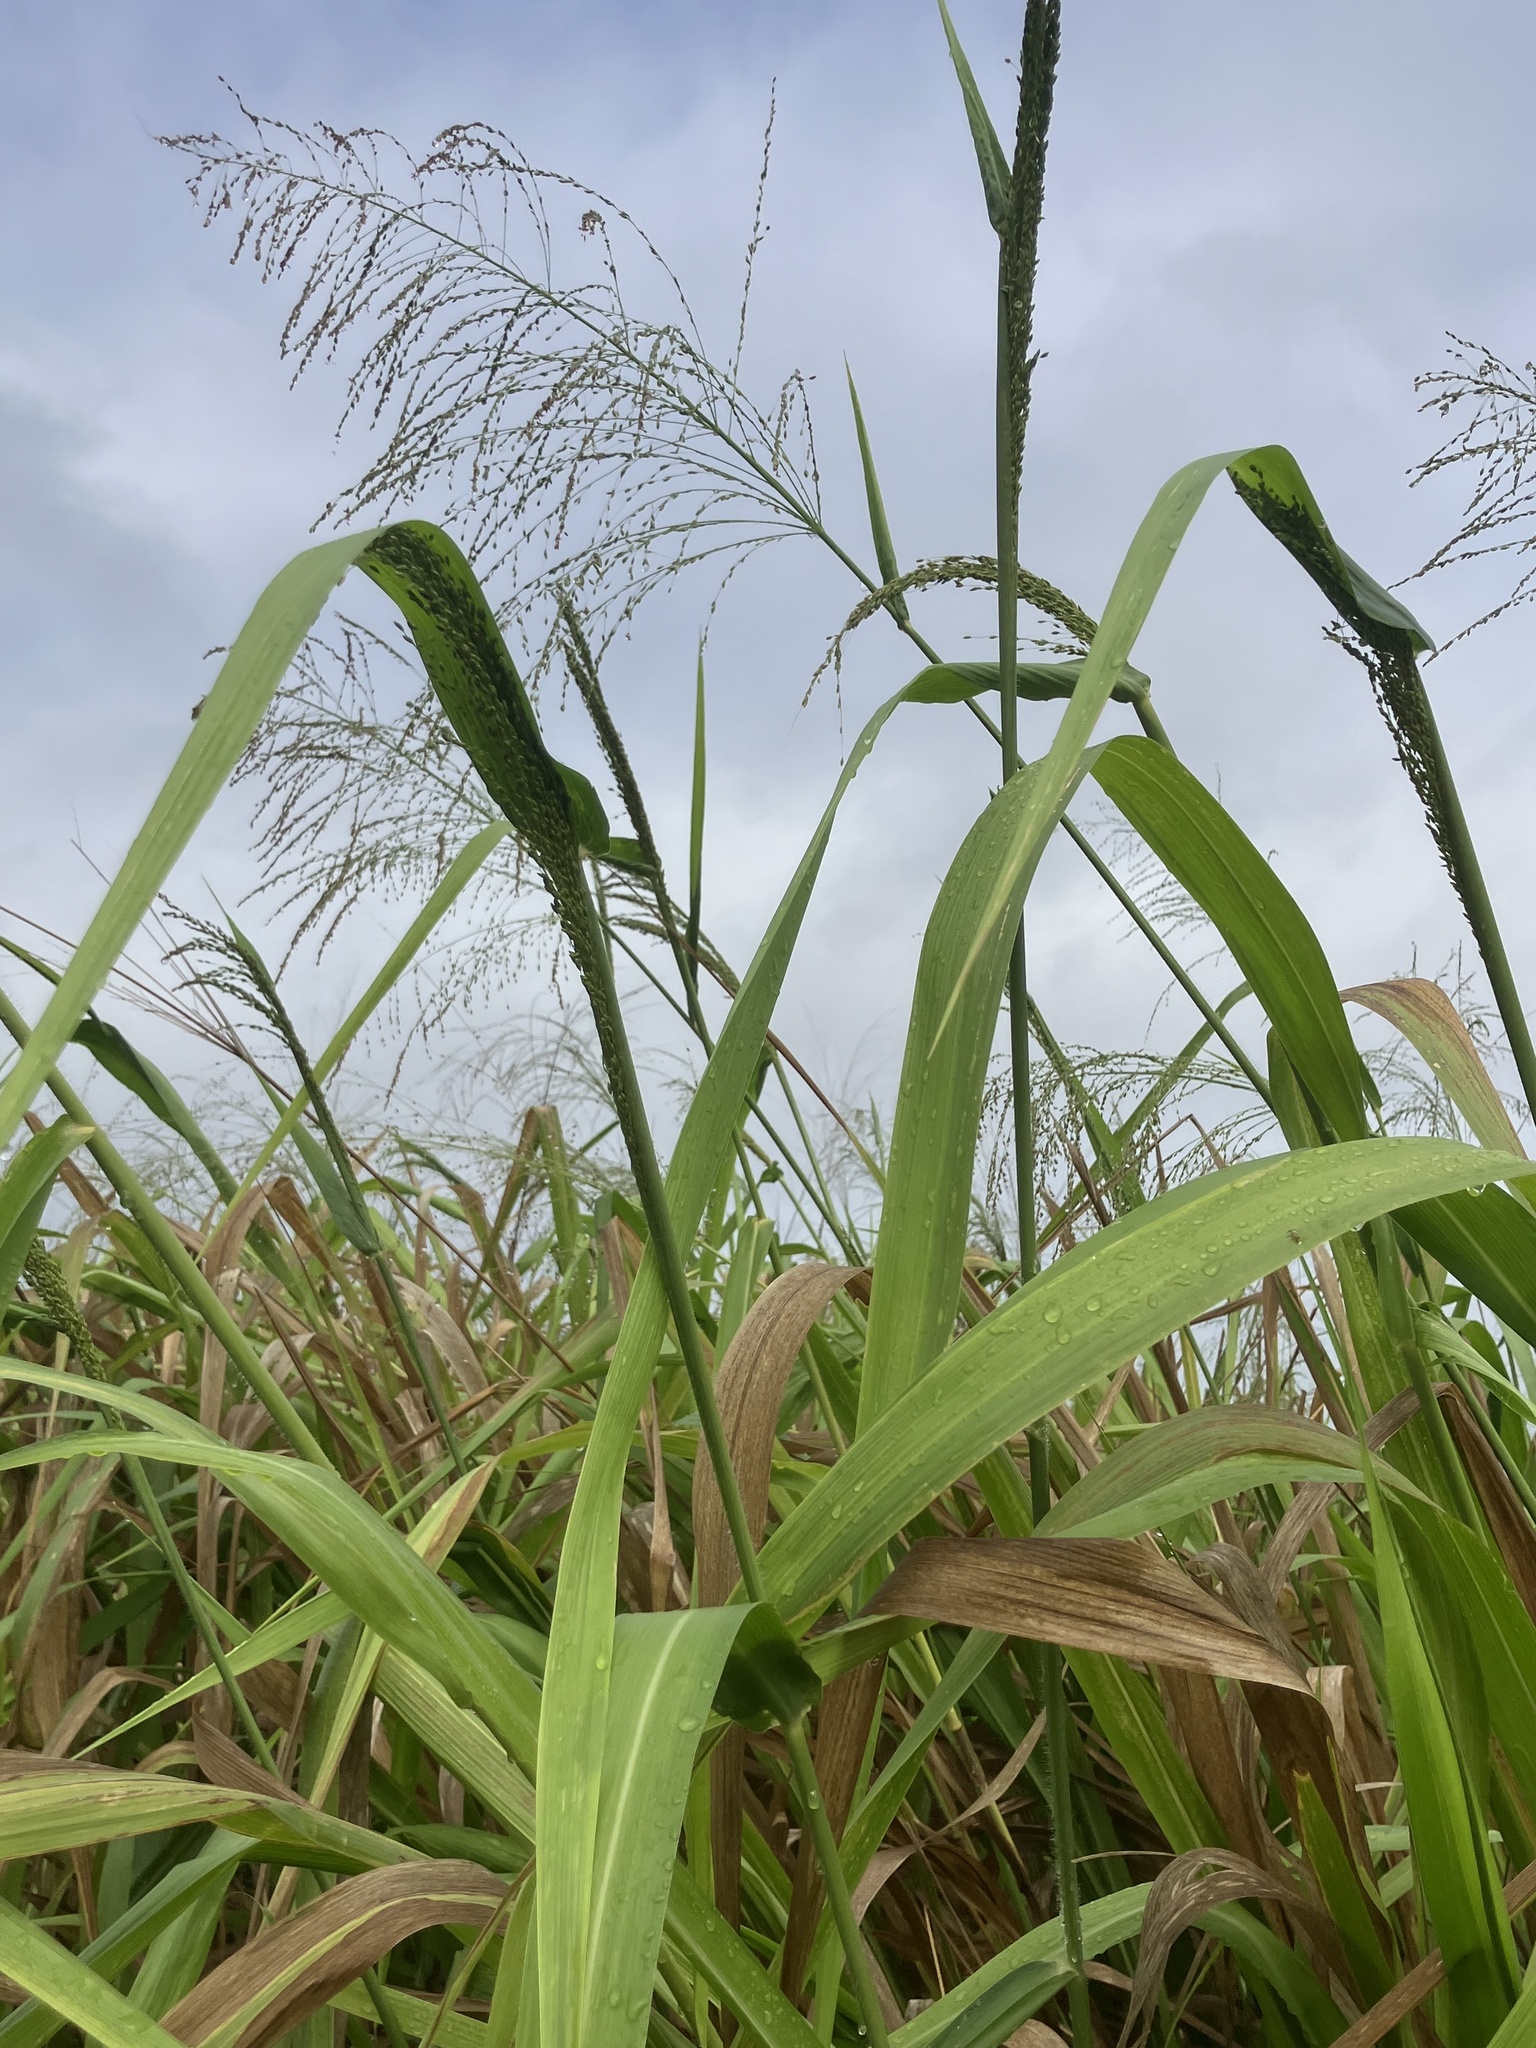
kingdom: Plantae
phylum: Tracheophyta
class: Liliopsida
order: Poales
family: Poaceae
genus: Megathyrsus
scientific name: Megathyrsus maximus
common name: Guineagrass
